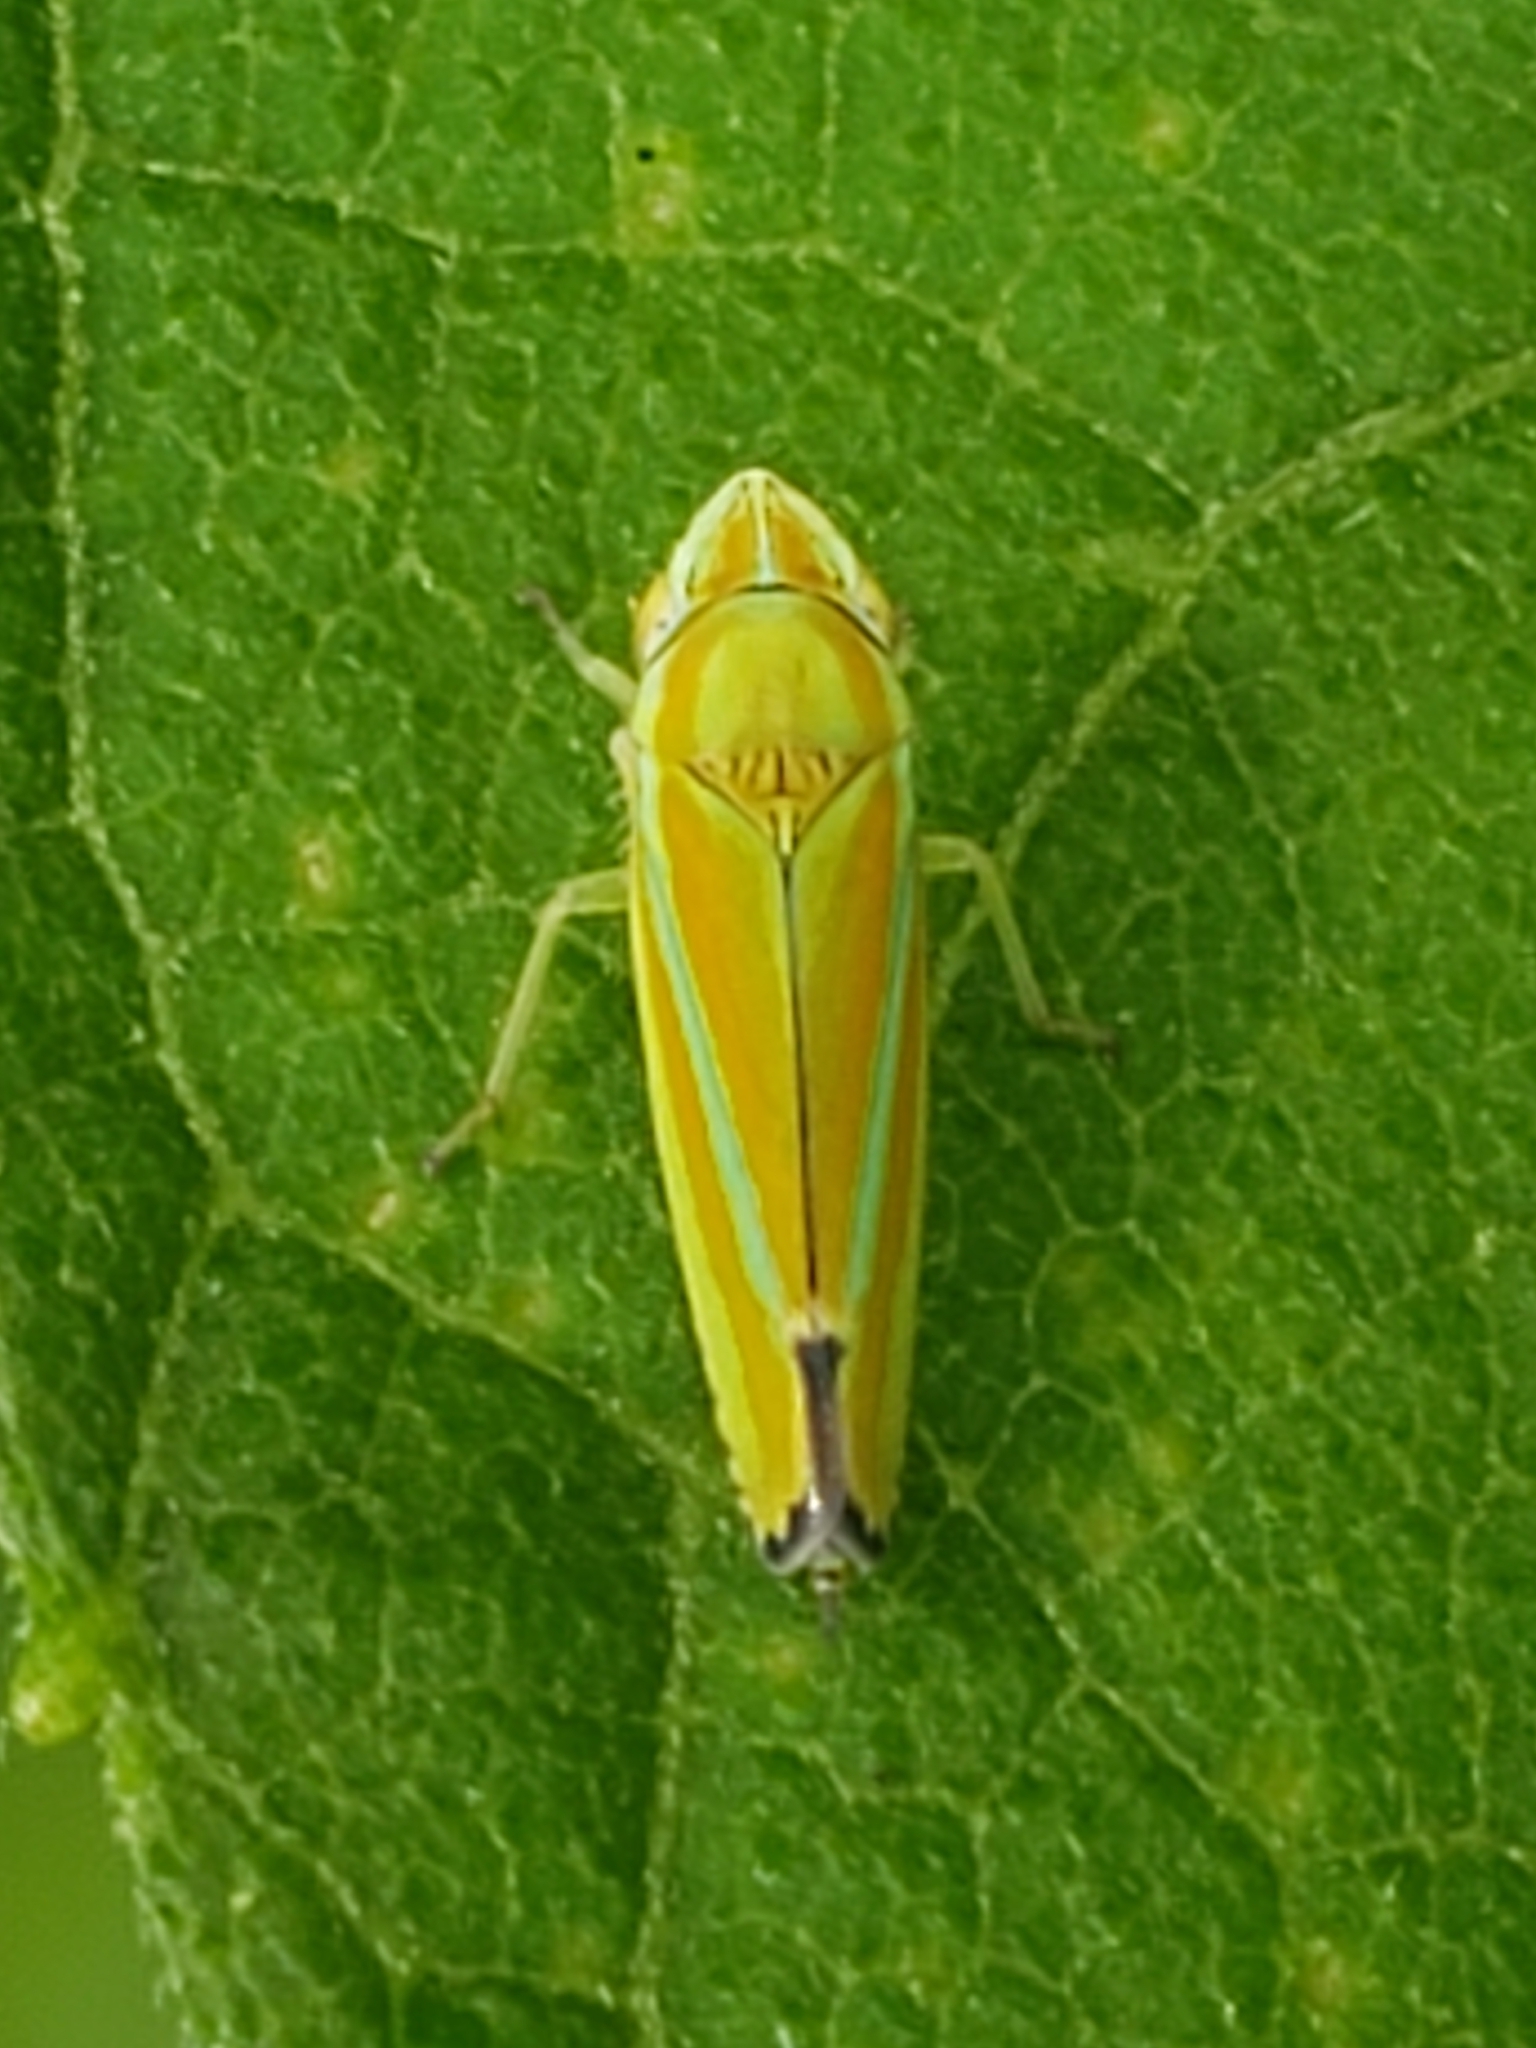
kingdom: Animalia
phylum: Arthropoda
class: Insecta
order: Hemiptera
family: Cicadellidae
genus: Graphocephala
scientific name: Graphocephala versuta
